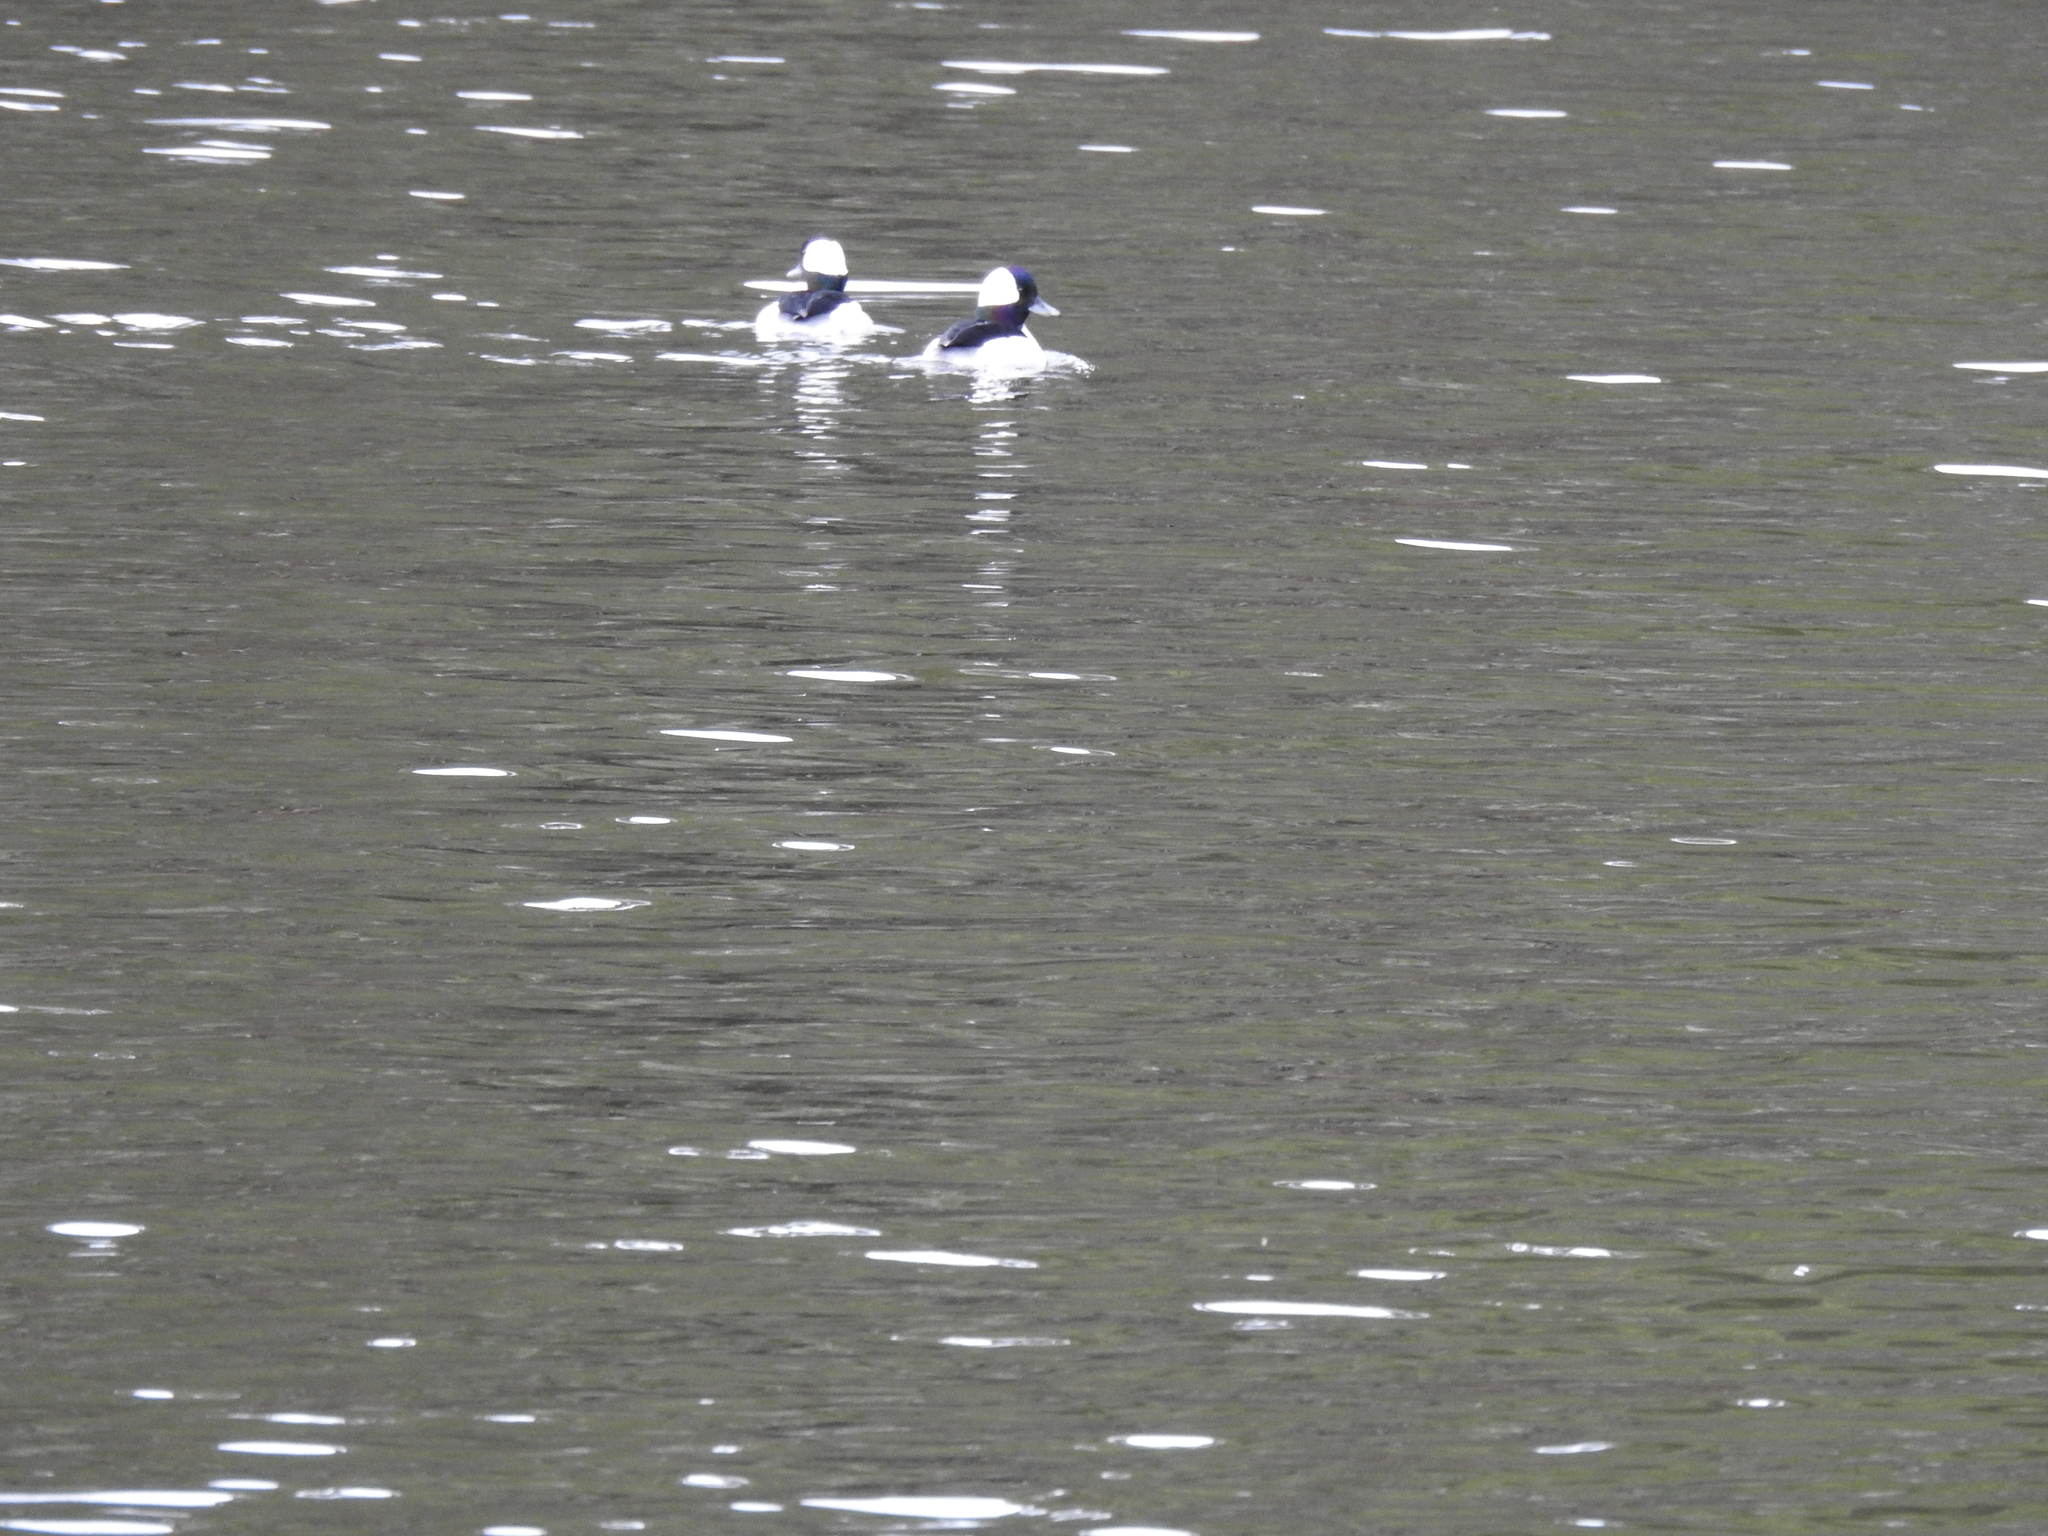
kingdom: Animalia
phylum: Chordata
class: Aves
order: Anseriformes
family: Anatidae
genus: Bucephala
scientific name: Bucephala albeola
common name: Bufflehead
